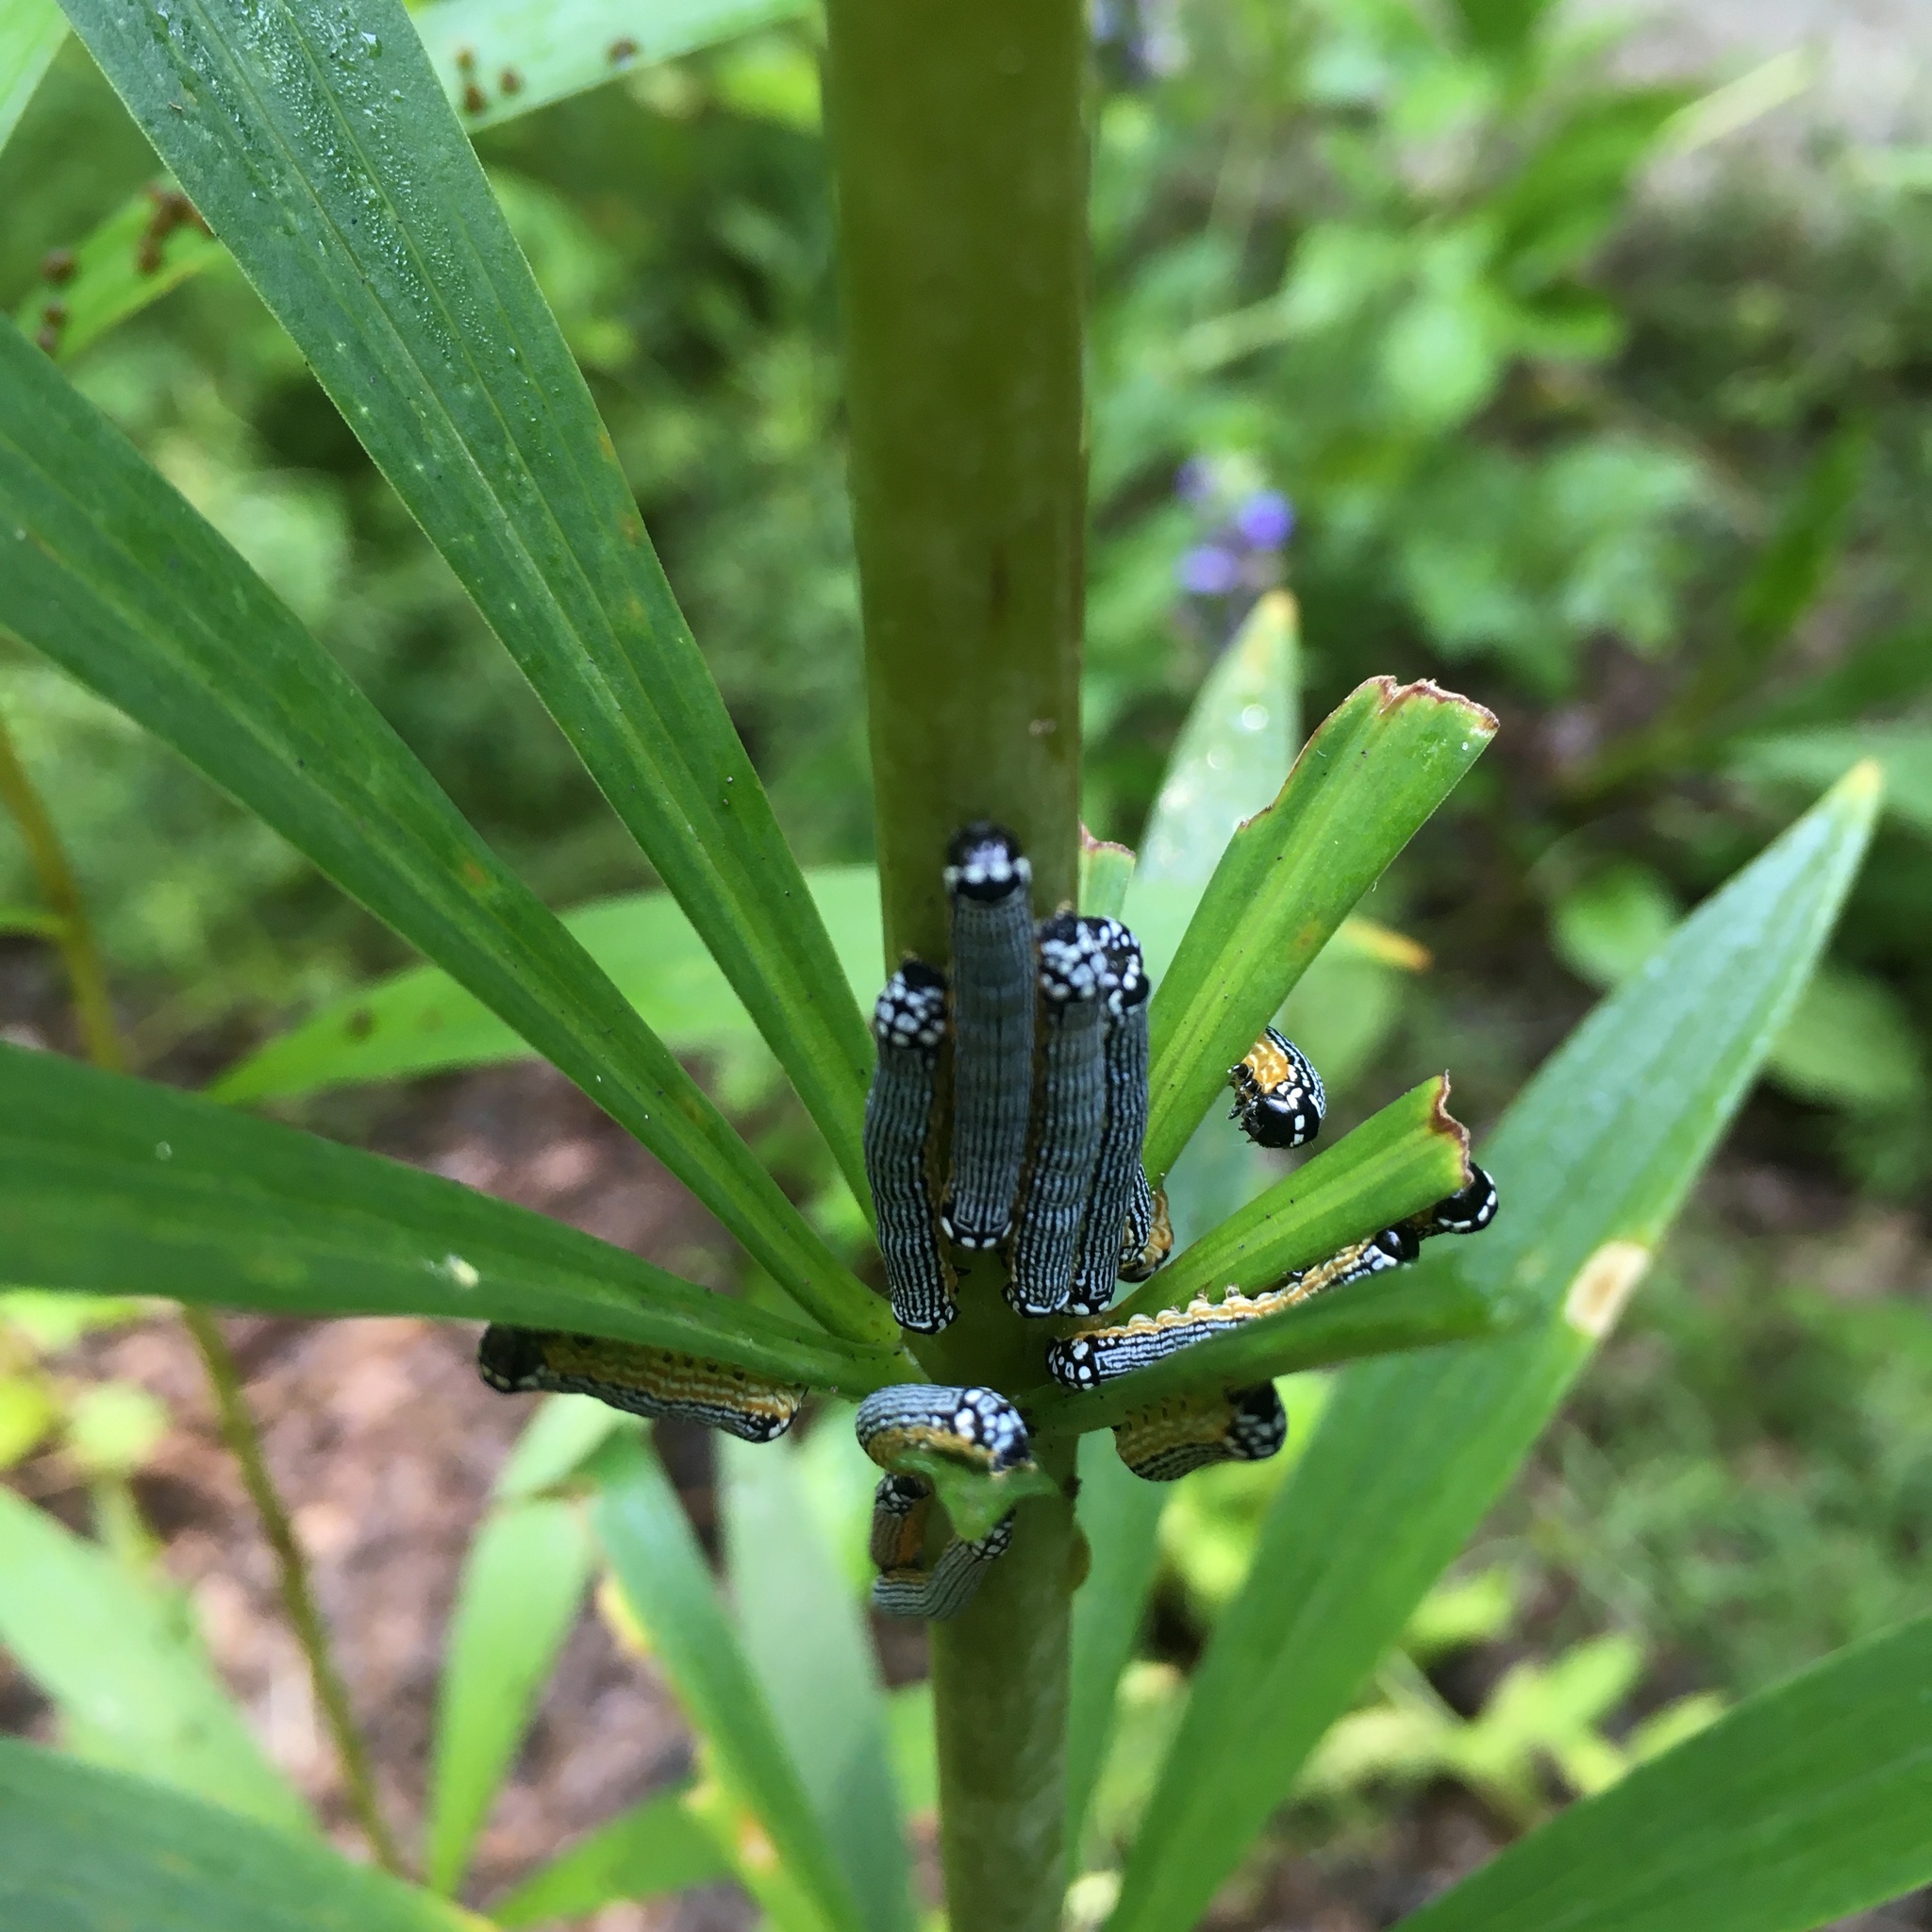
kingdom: Animalia
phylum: Arthropoda
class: Insecta
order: Lepidoptera
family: Noctuidae
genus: Phosphila
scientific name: Phosphila turbulenta
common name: Turbulent phosphila moth
